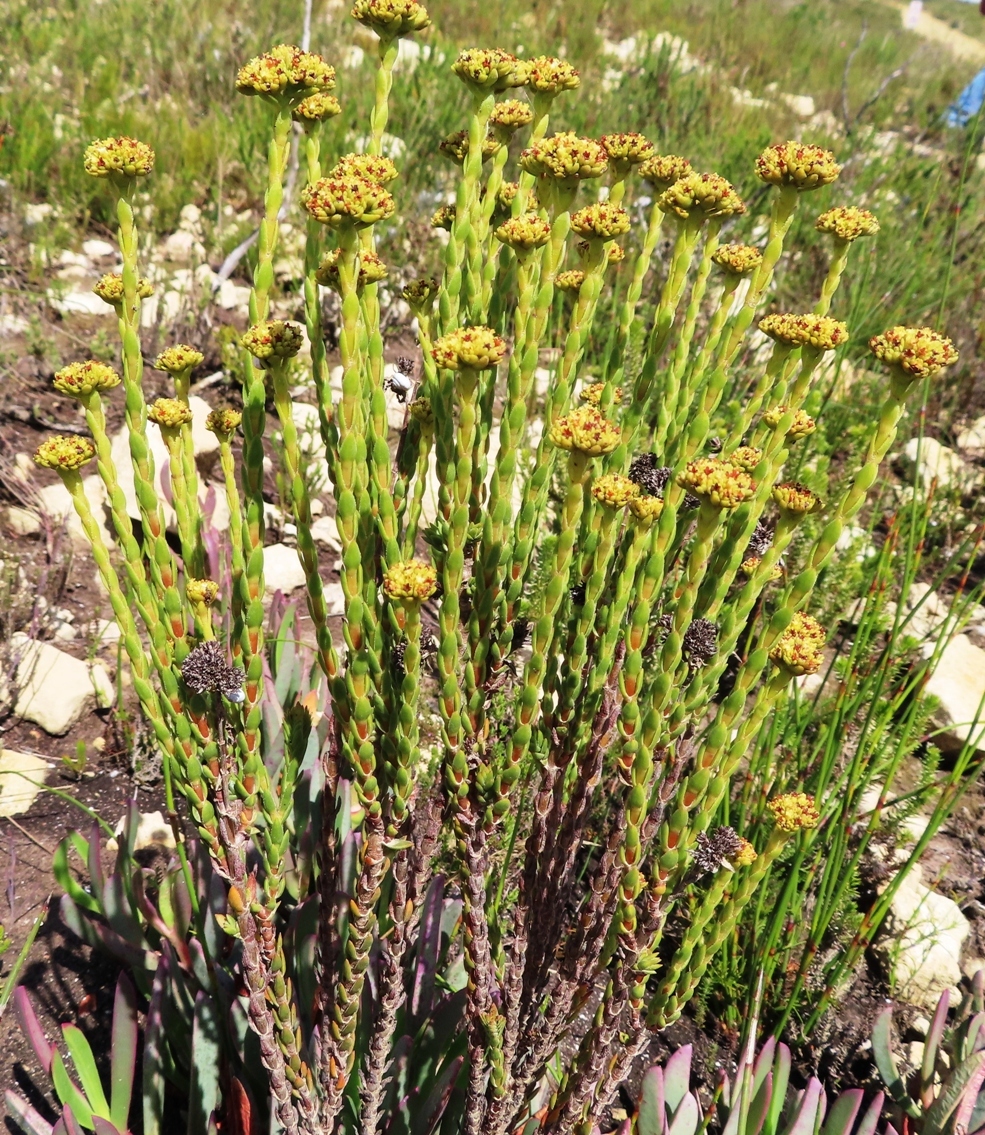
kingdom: Plantae
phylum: Tracheophyta
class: Magnoliopsida
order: Saxifragales
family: Crassulaceae
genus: Crassula
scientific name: Crassula subulata
